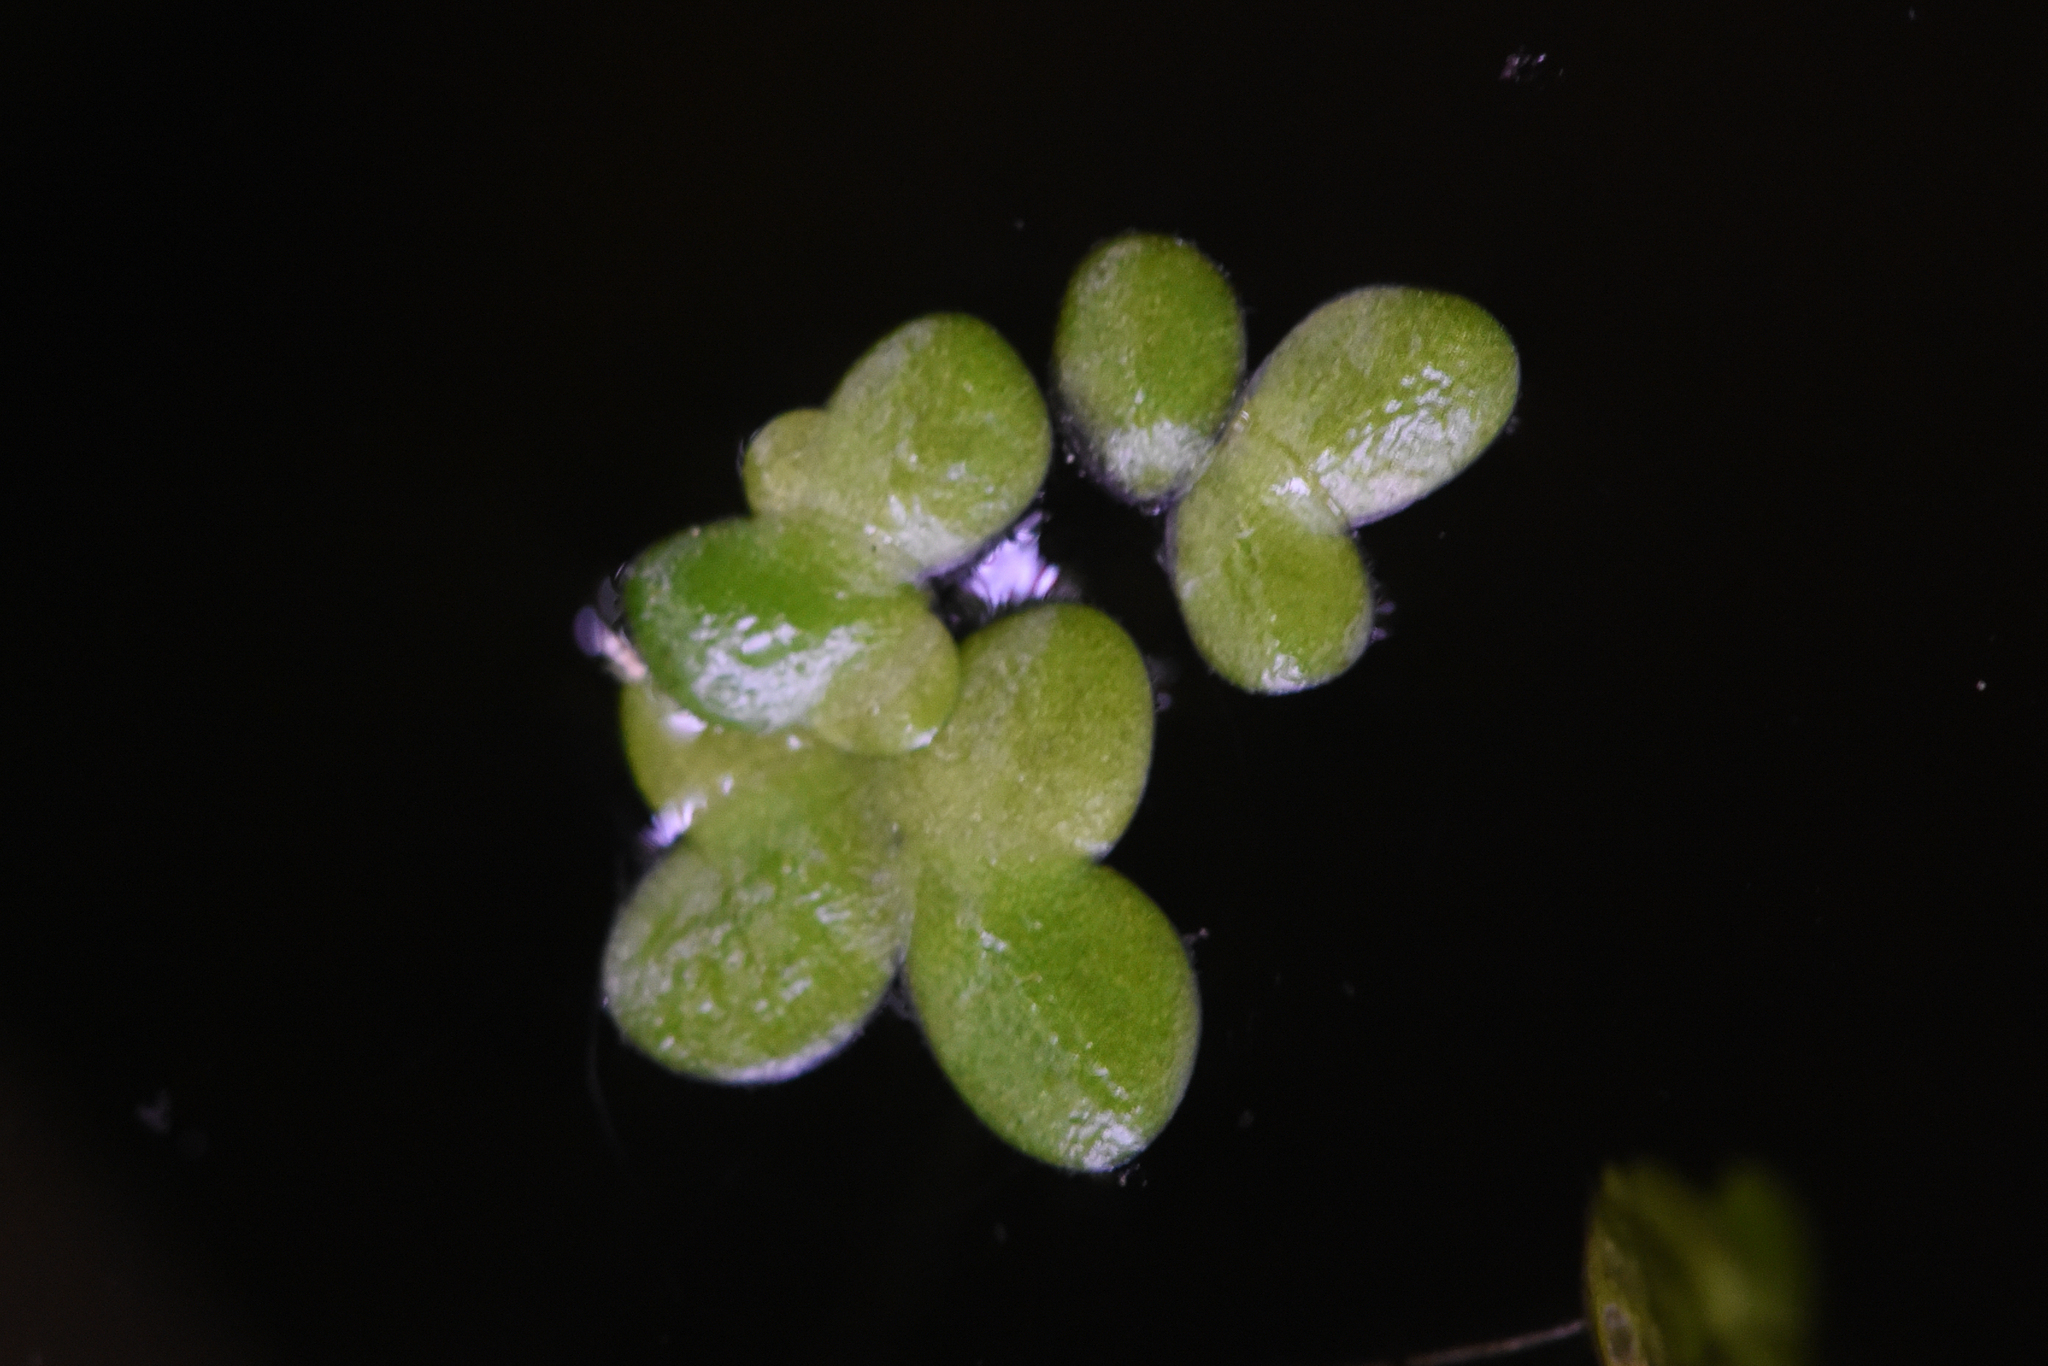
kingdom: Plantae
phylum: Tracheophyta
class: Liliopsida
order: Alismatales
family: Araceae
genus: Lemna
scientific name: Lemna minor
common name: Common duckweed
